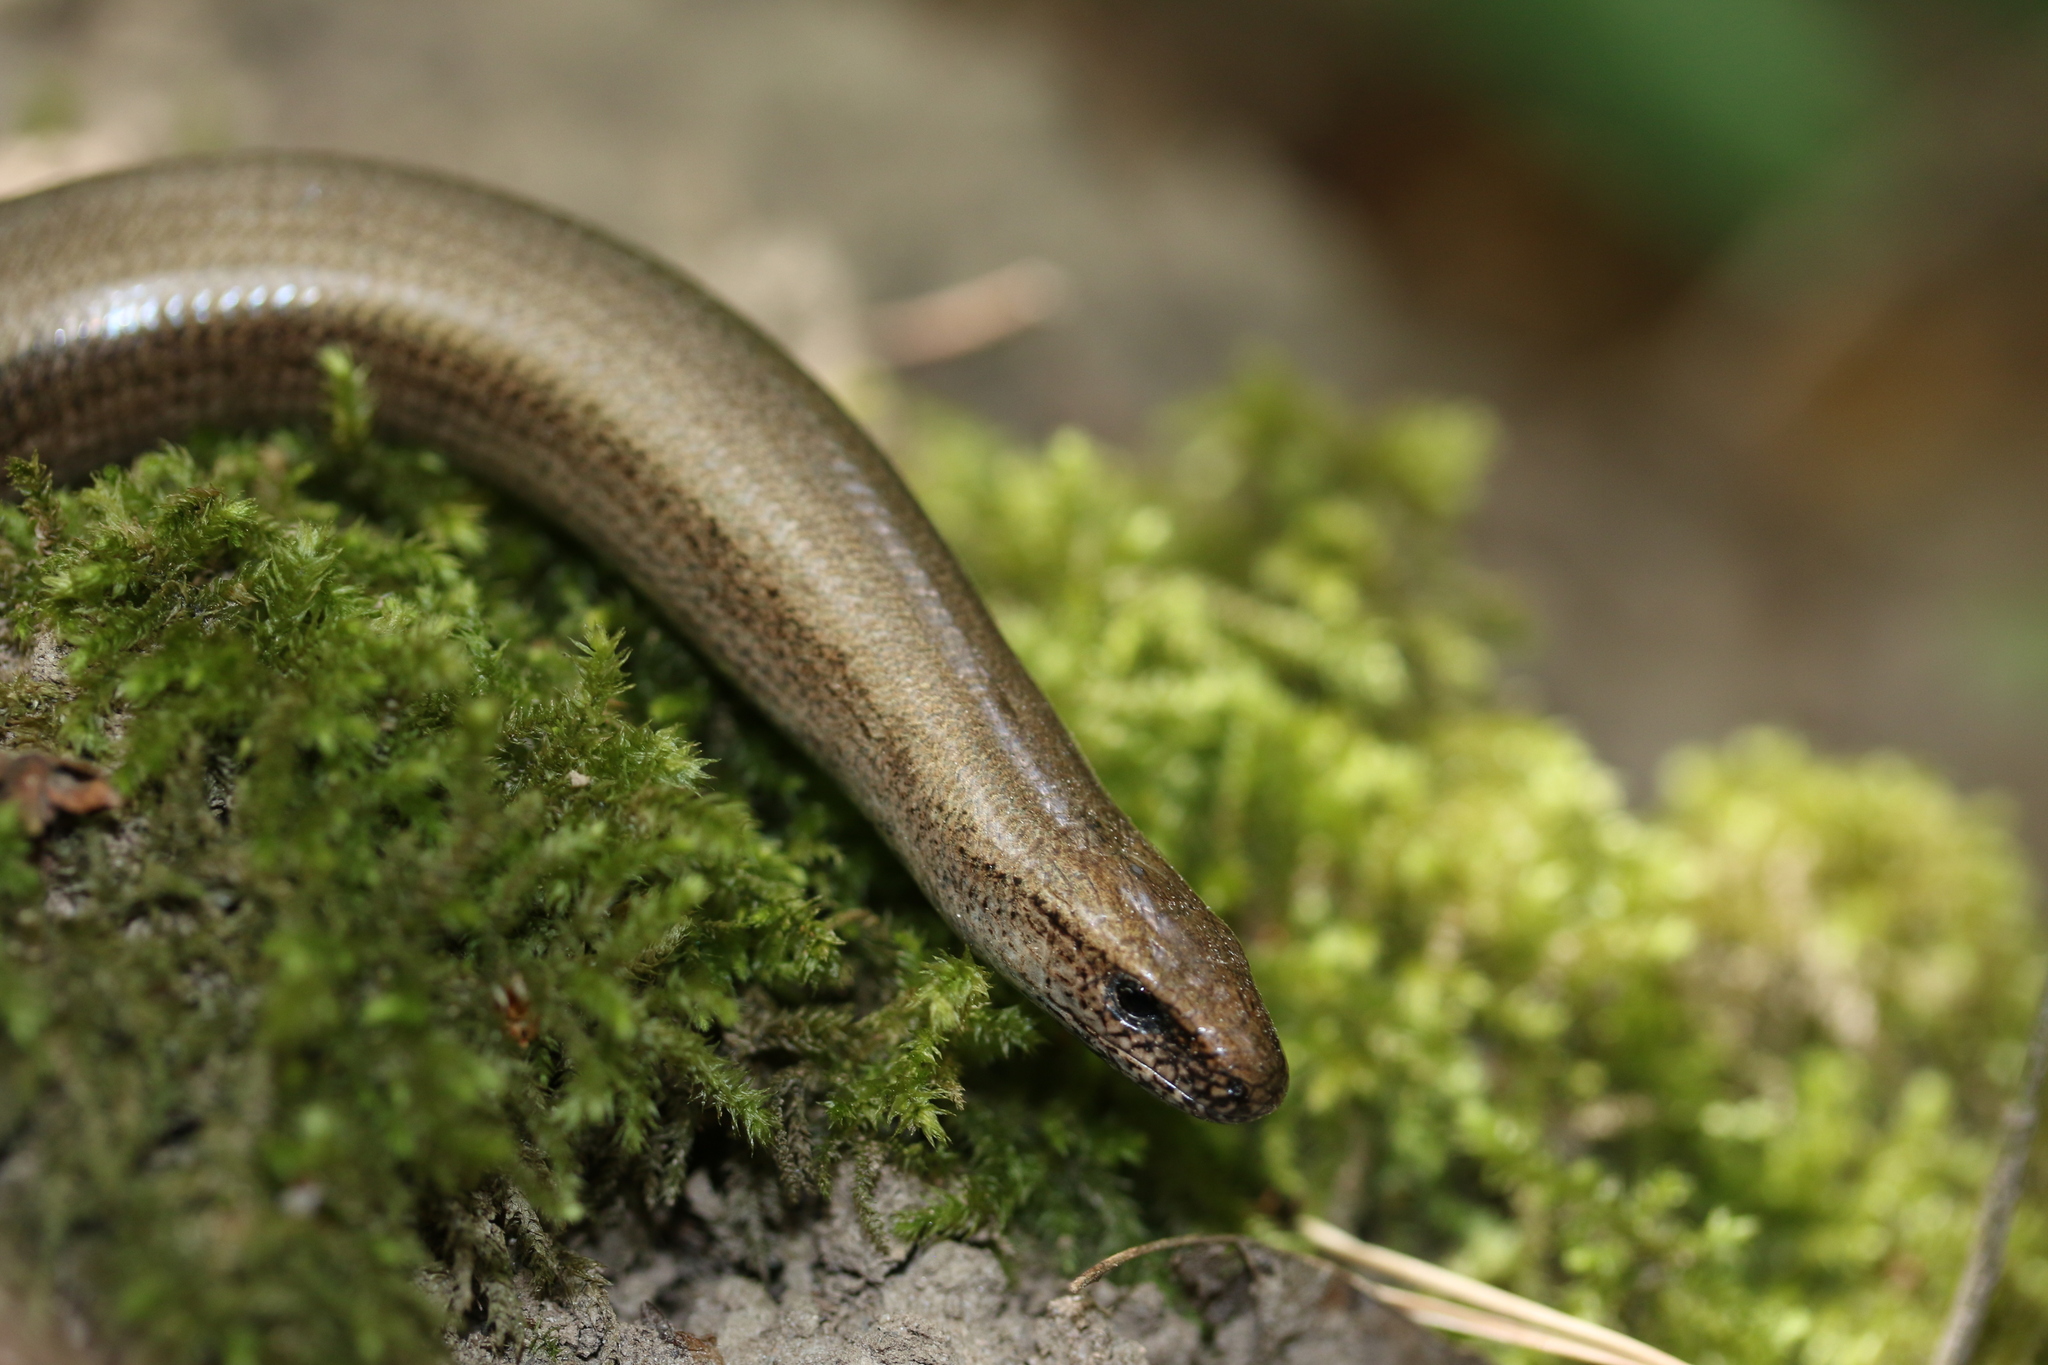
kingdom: Animalia
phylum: Chordata
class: Squamata
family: Anguidae
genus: Anguis
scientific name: Anguis fragilis
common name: Slow worm
